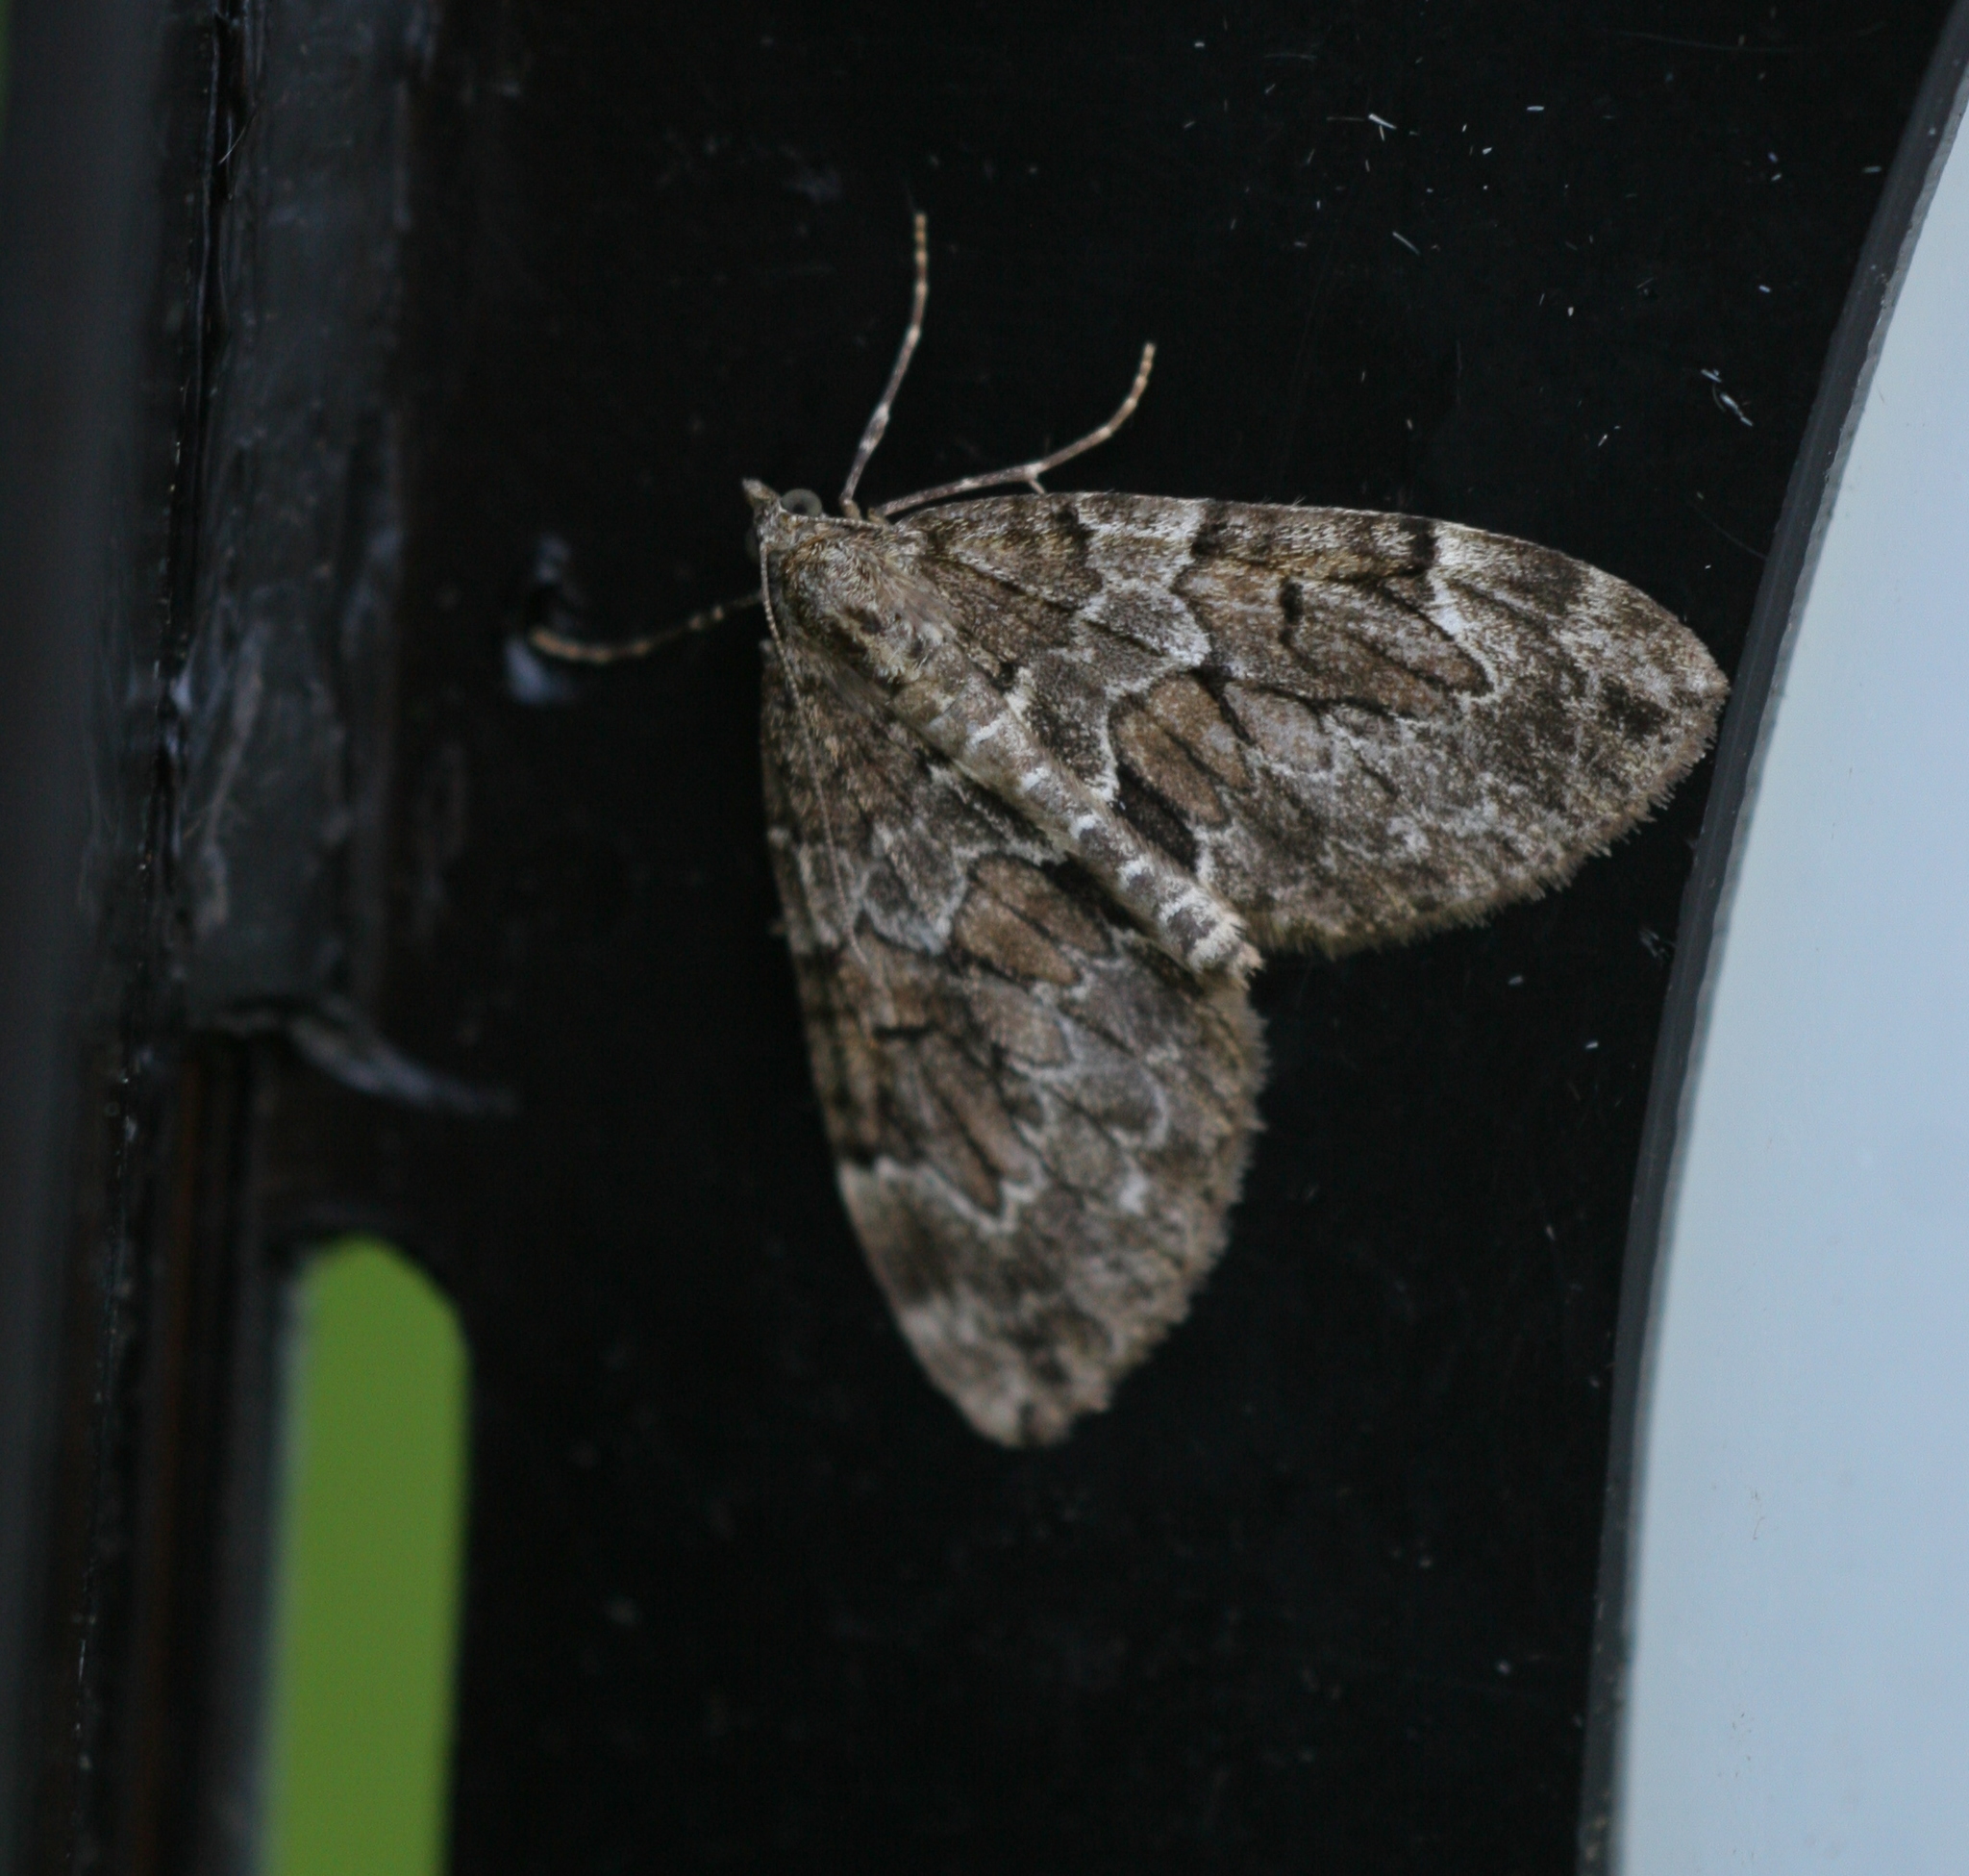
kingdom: Animalia
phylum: Arthropoda
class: Insecta
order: Lepidoptera
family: Geometridae
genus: Thera
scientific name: Thera britannica
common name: Spruce carpet
